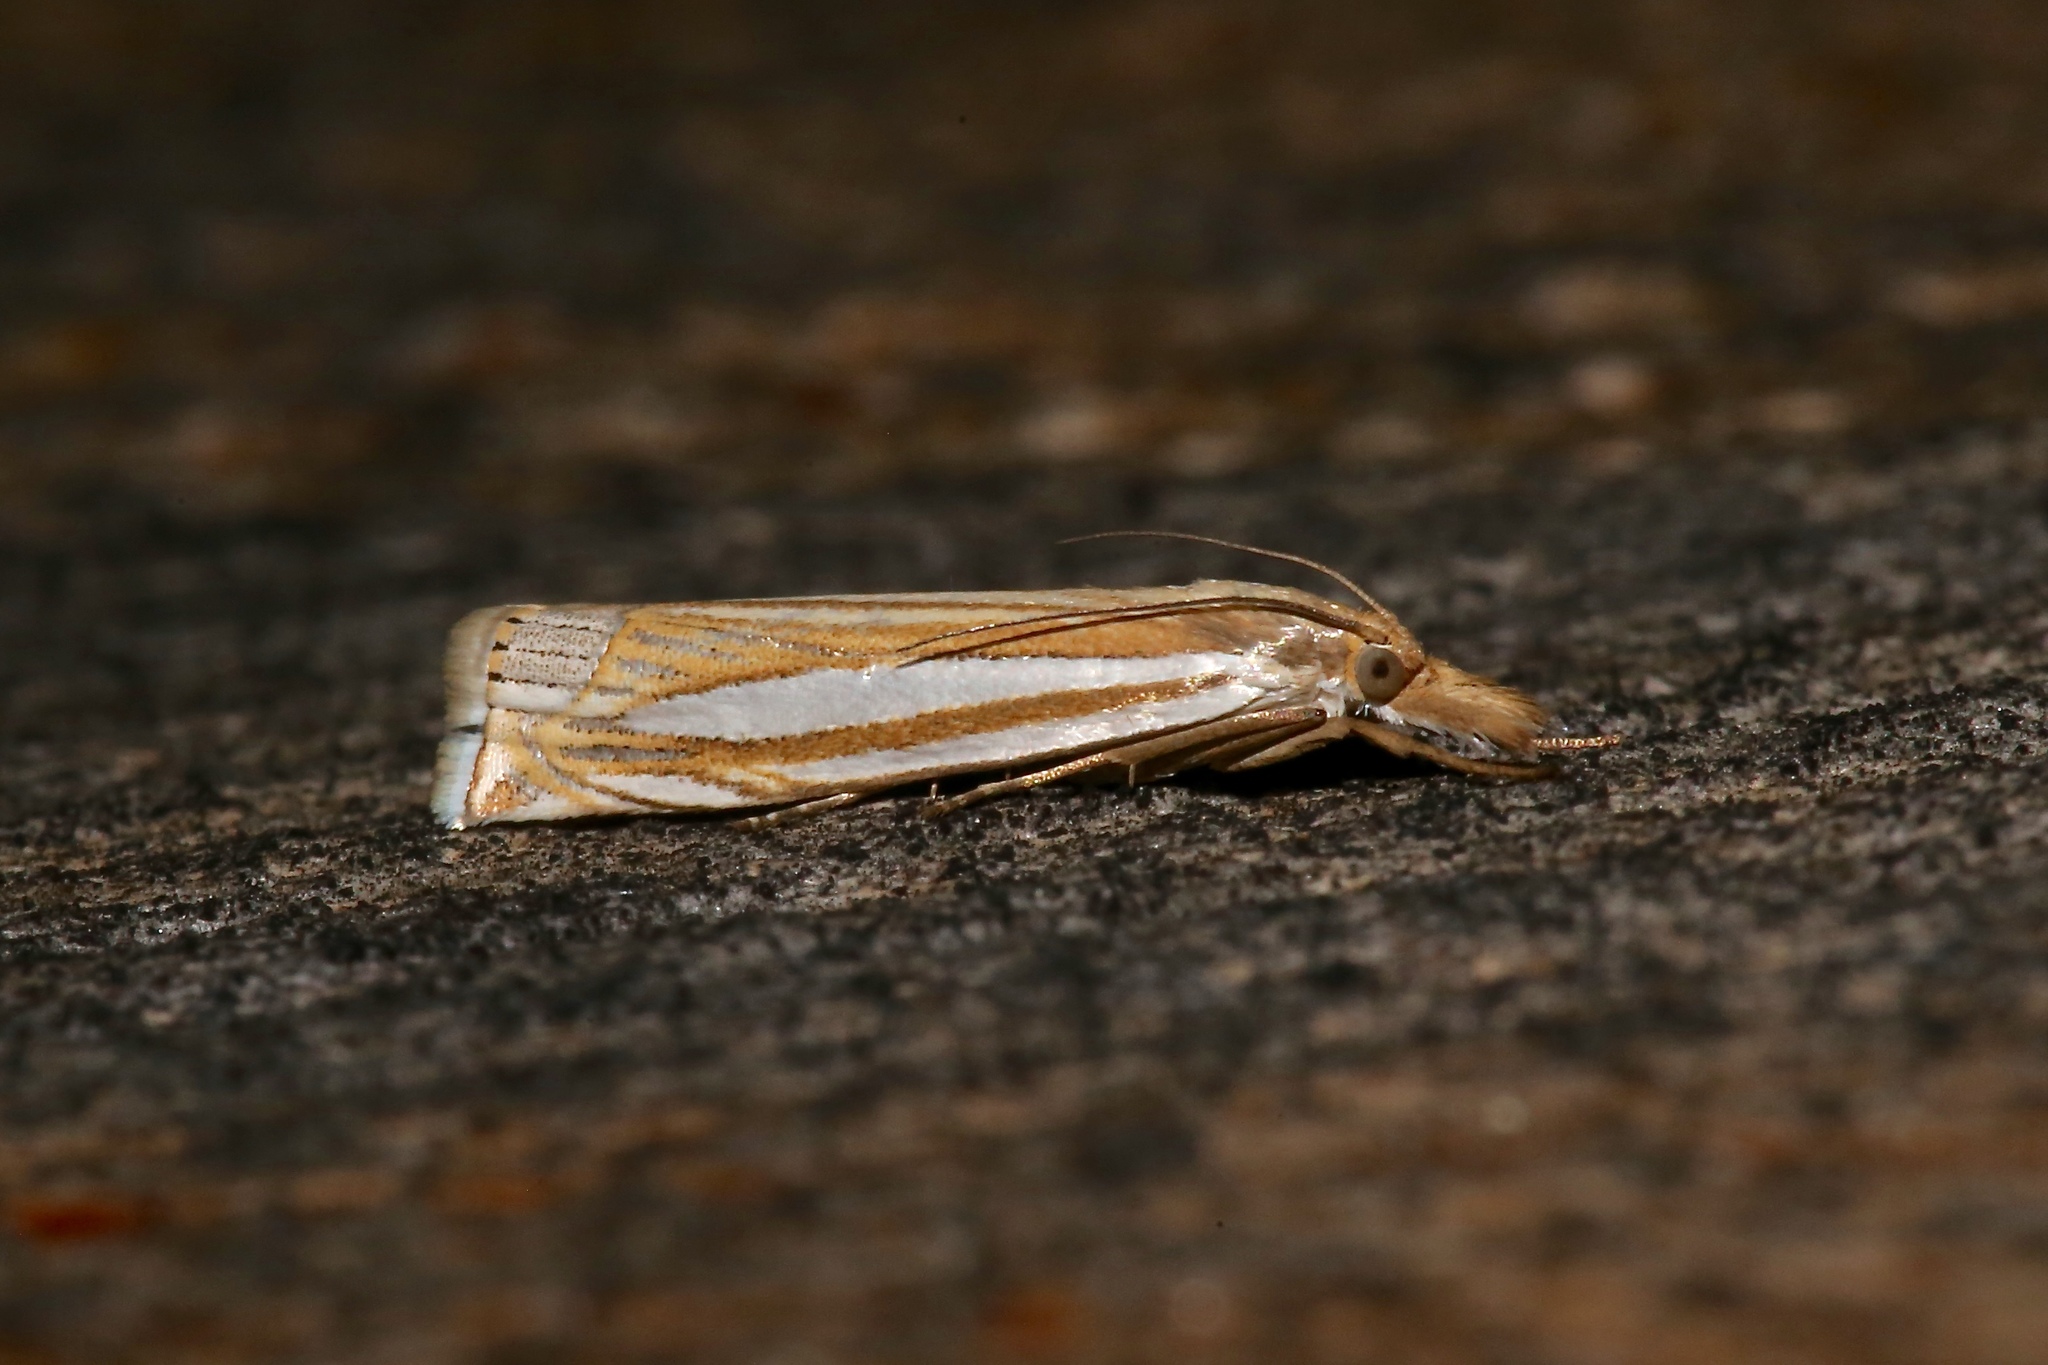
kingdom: Animalia
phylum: Arthropoda
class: Insecta
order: Lepidoptera
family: Crambidae
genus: Crambus
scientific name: Crambus laqueatellus
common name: Eastern grass-veneer
